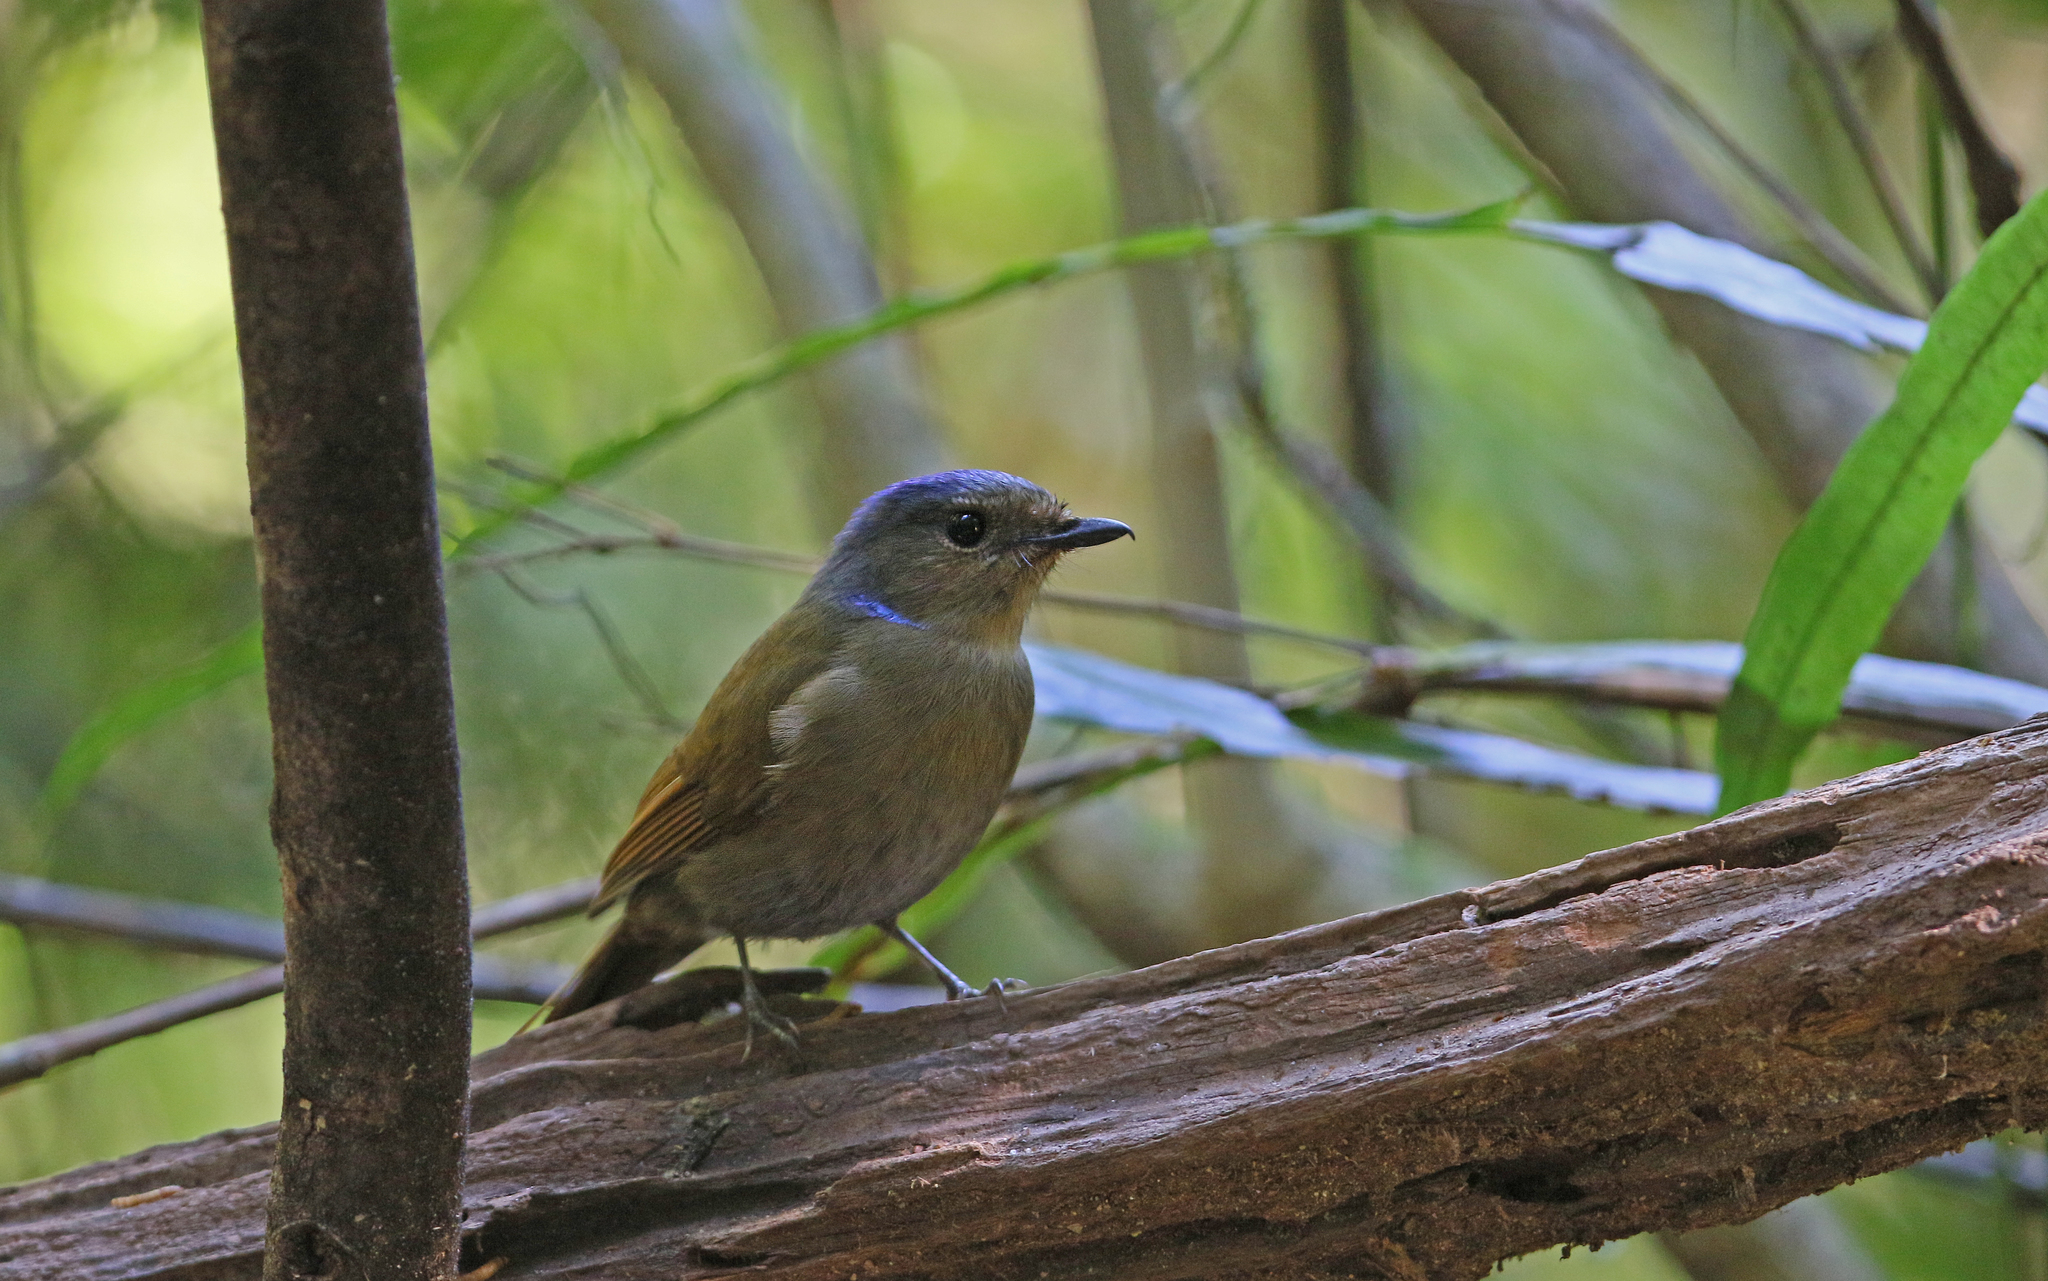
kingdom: Animalia
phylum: Chordata
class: Aves
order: Passeriformes
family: Muscicapidae
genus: Niltava
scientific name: Niltava grandis
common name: Large niltava
